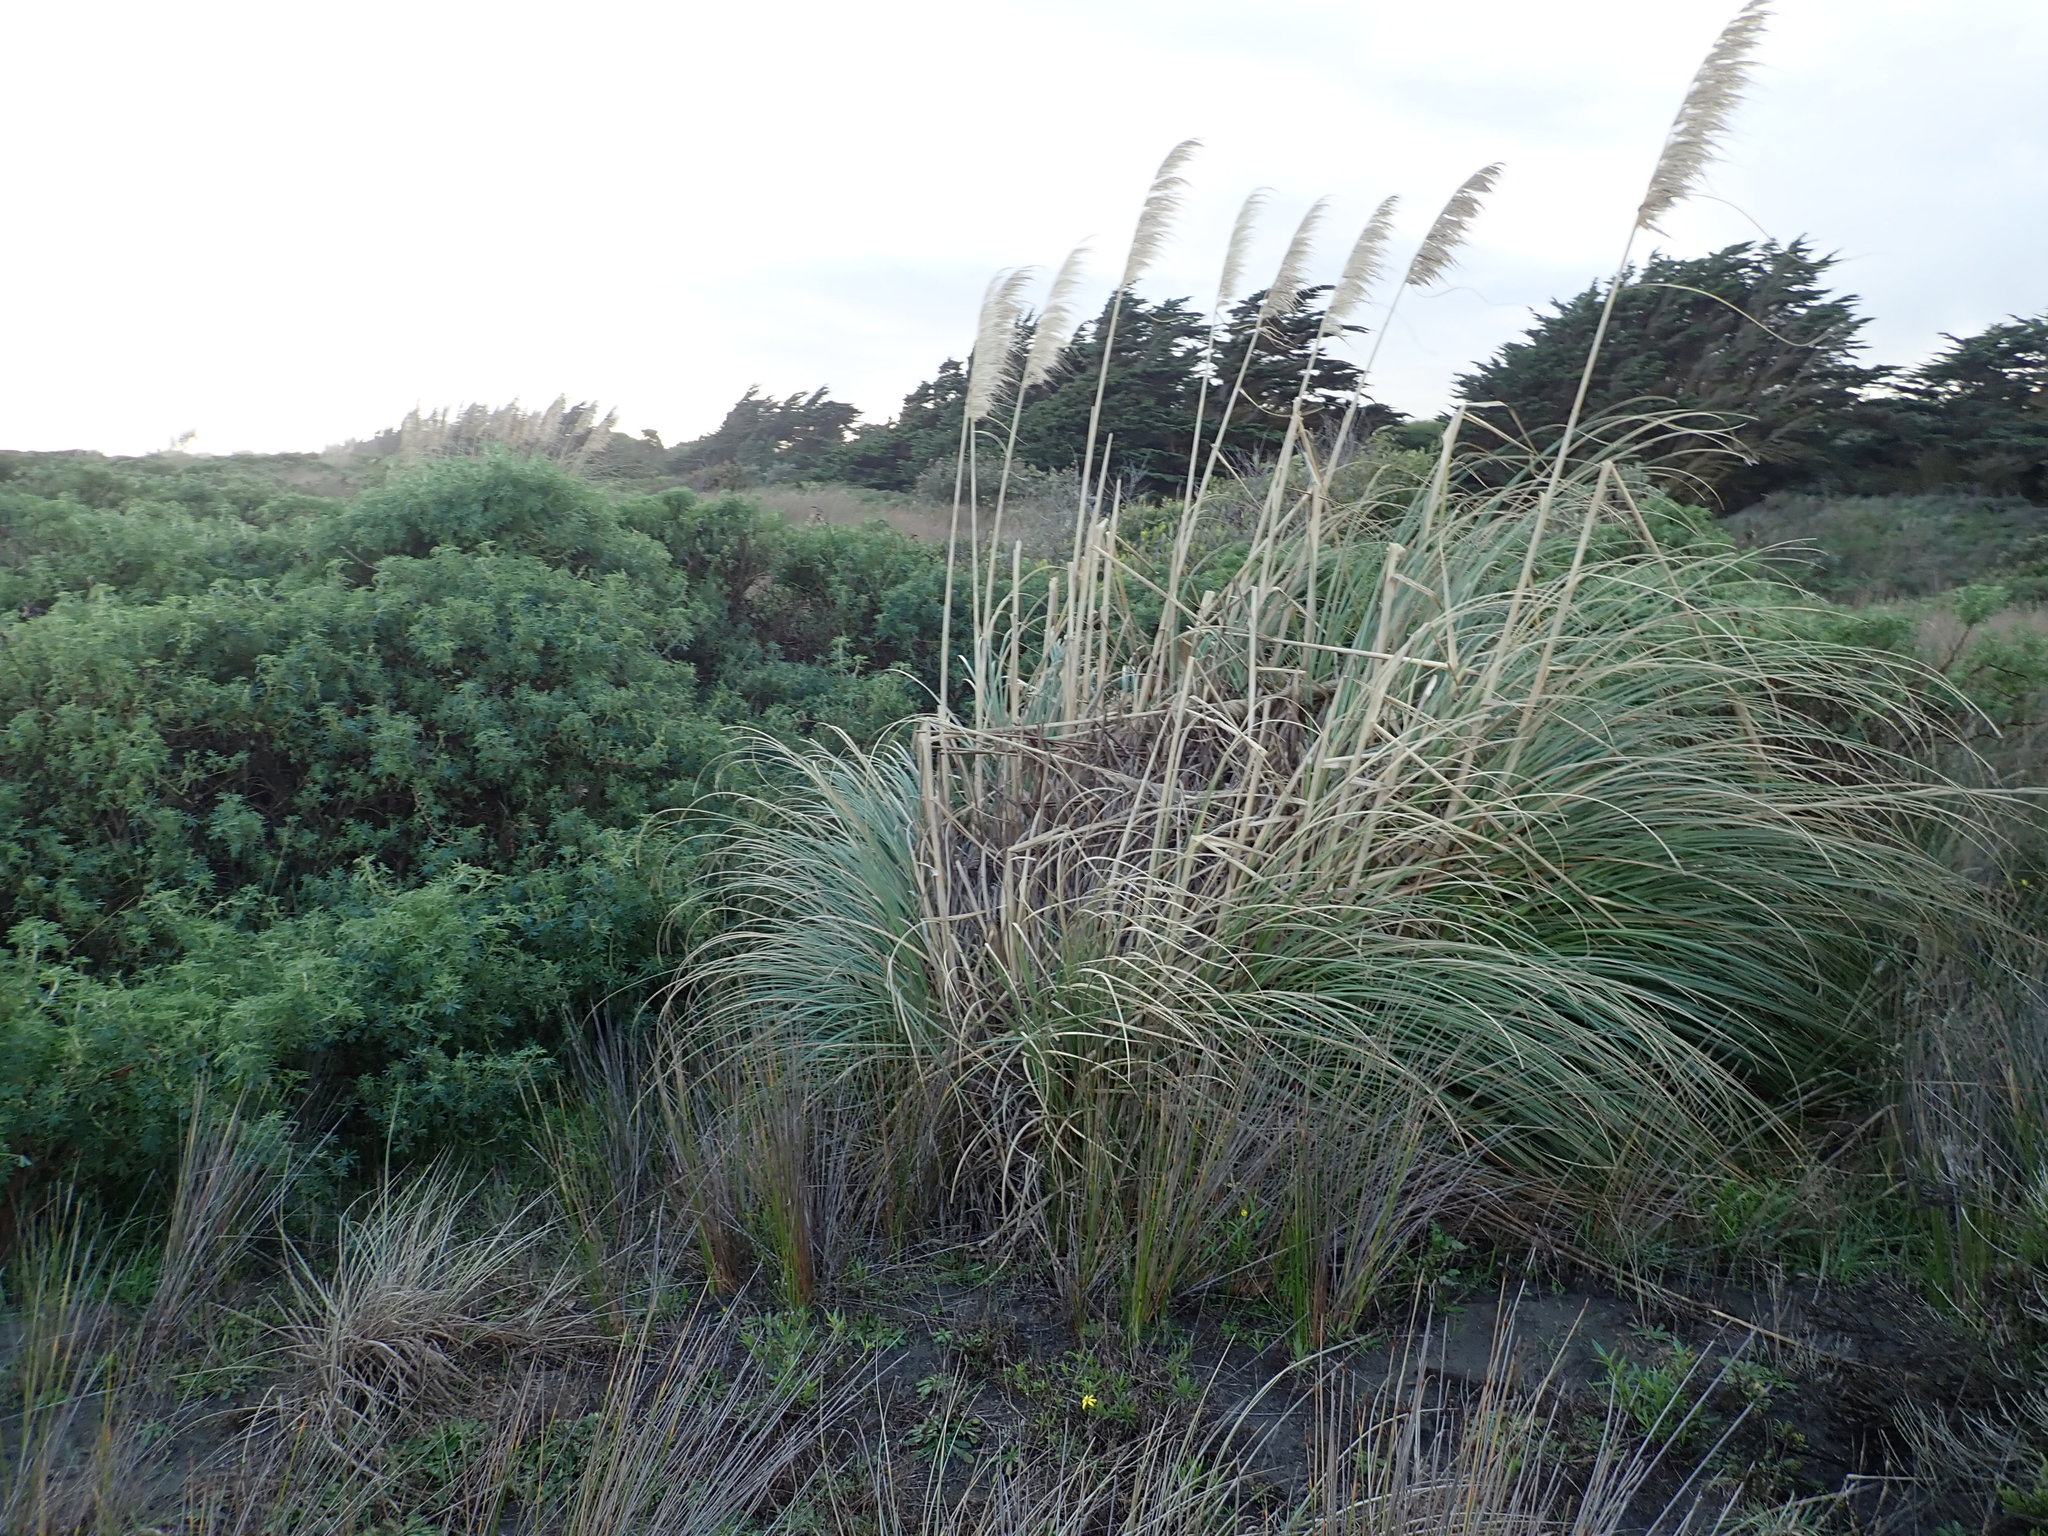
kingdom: Plantae
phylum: Tracheophyta
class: Liliopsida
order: Poales
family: Poaceae
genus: Cortaderia
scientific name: Cortaderia selloana
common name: Uruguayan pampas grass
